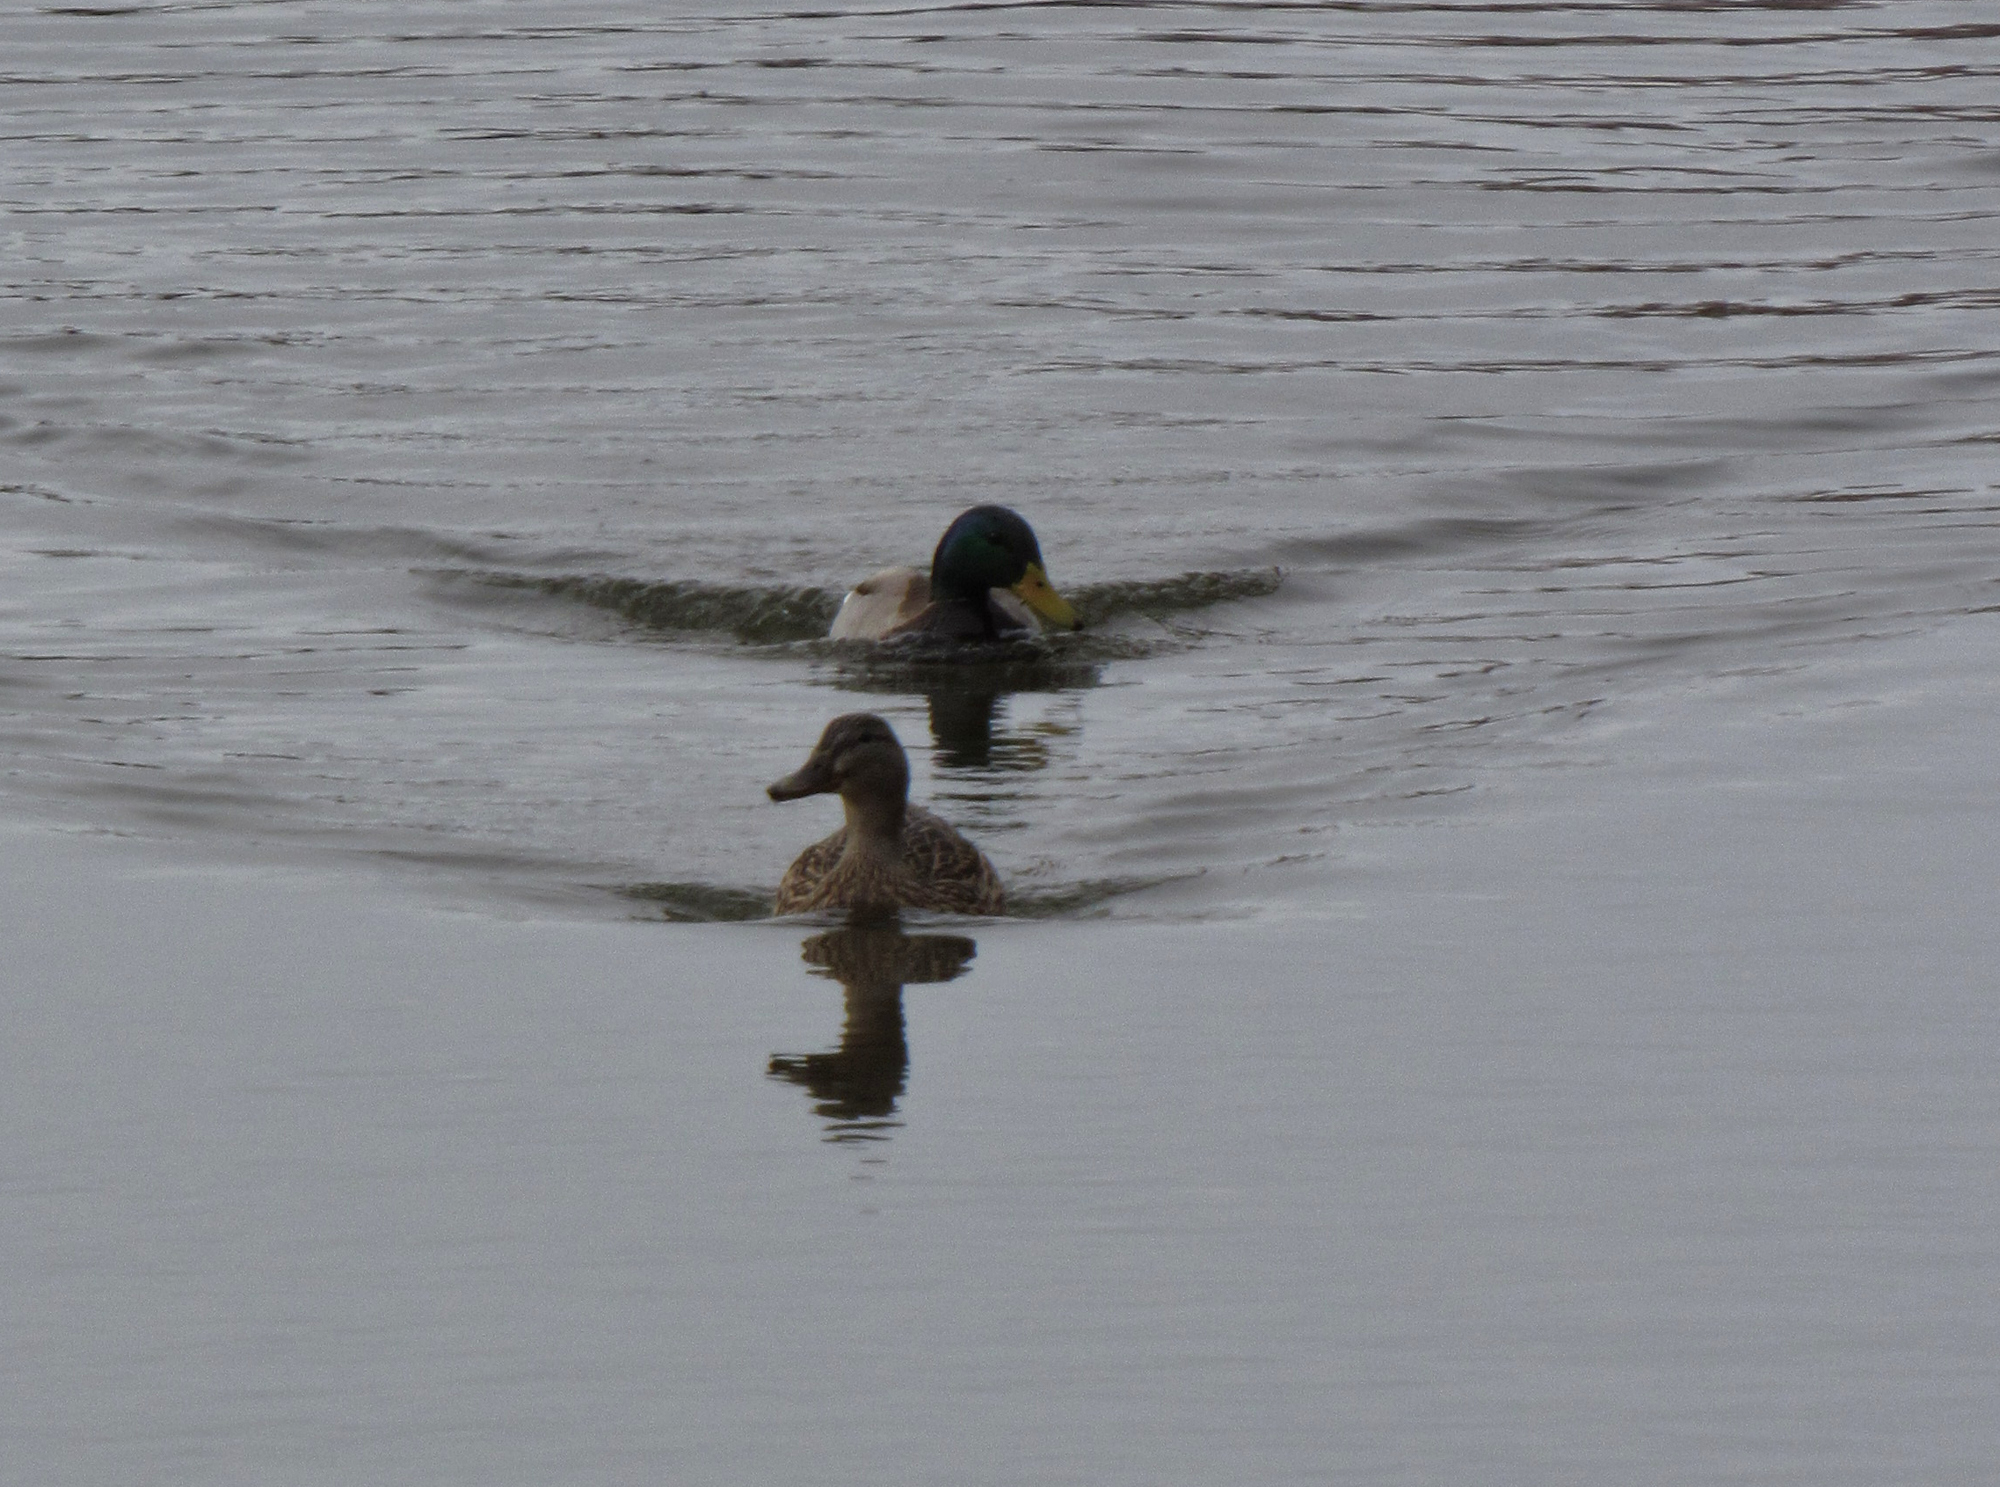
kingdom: Animalia
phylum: Chordata
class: Aves
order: Anseriformes
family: Anatidae
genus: Anas
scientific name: Anas platyrhynchos
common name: Mallard
